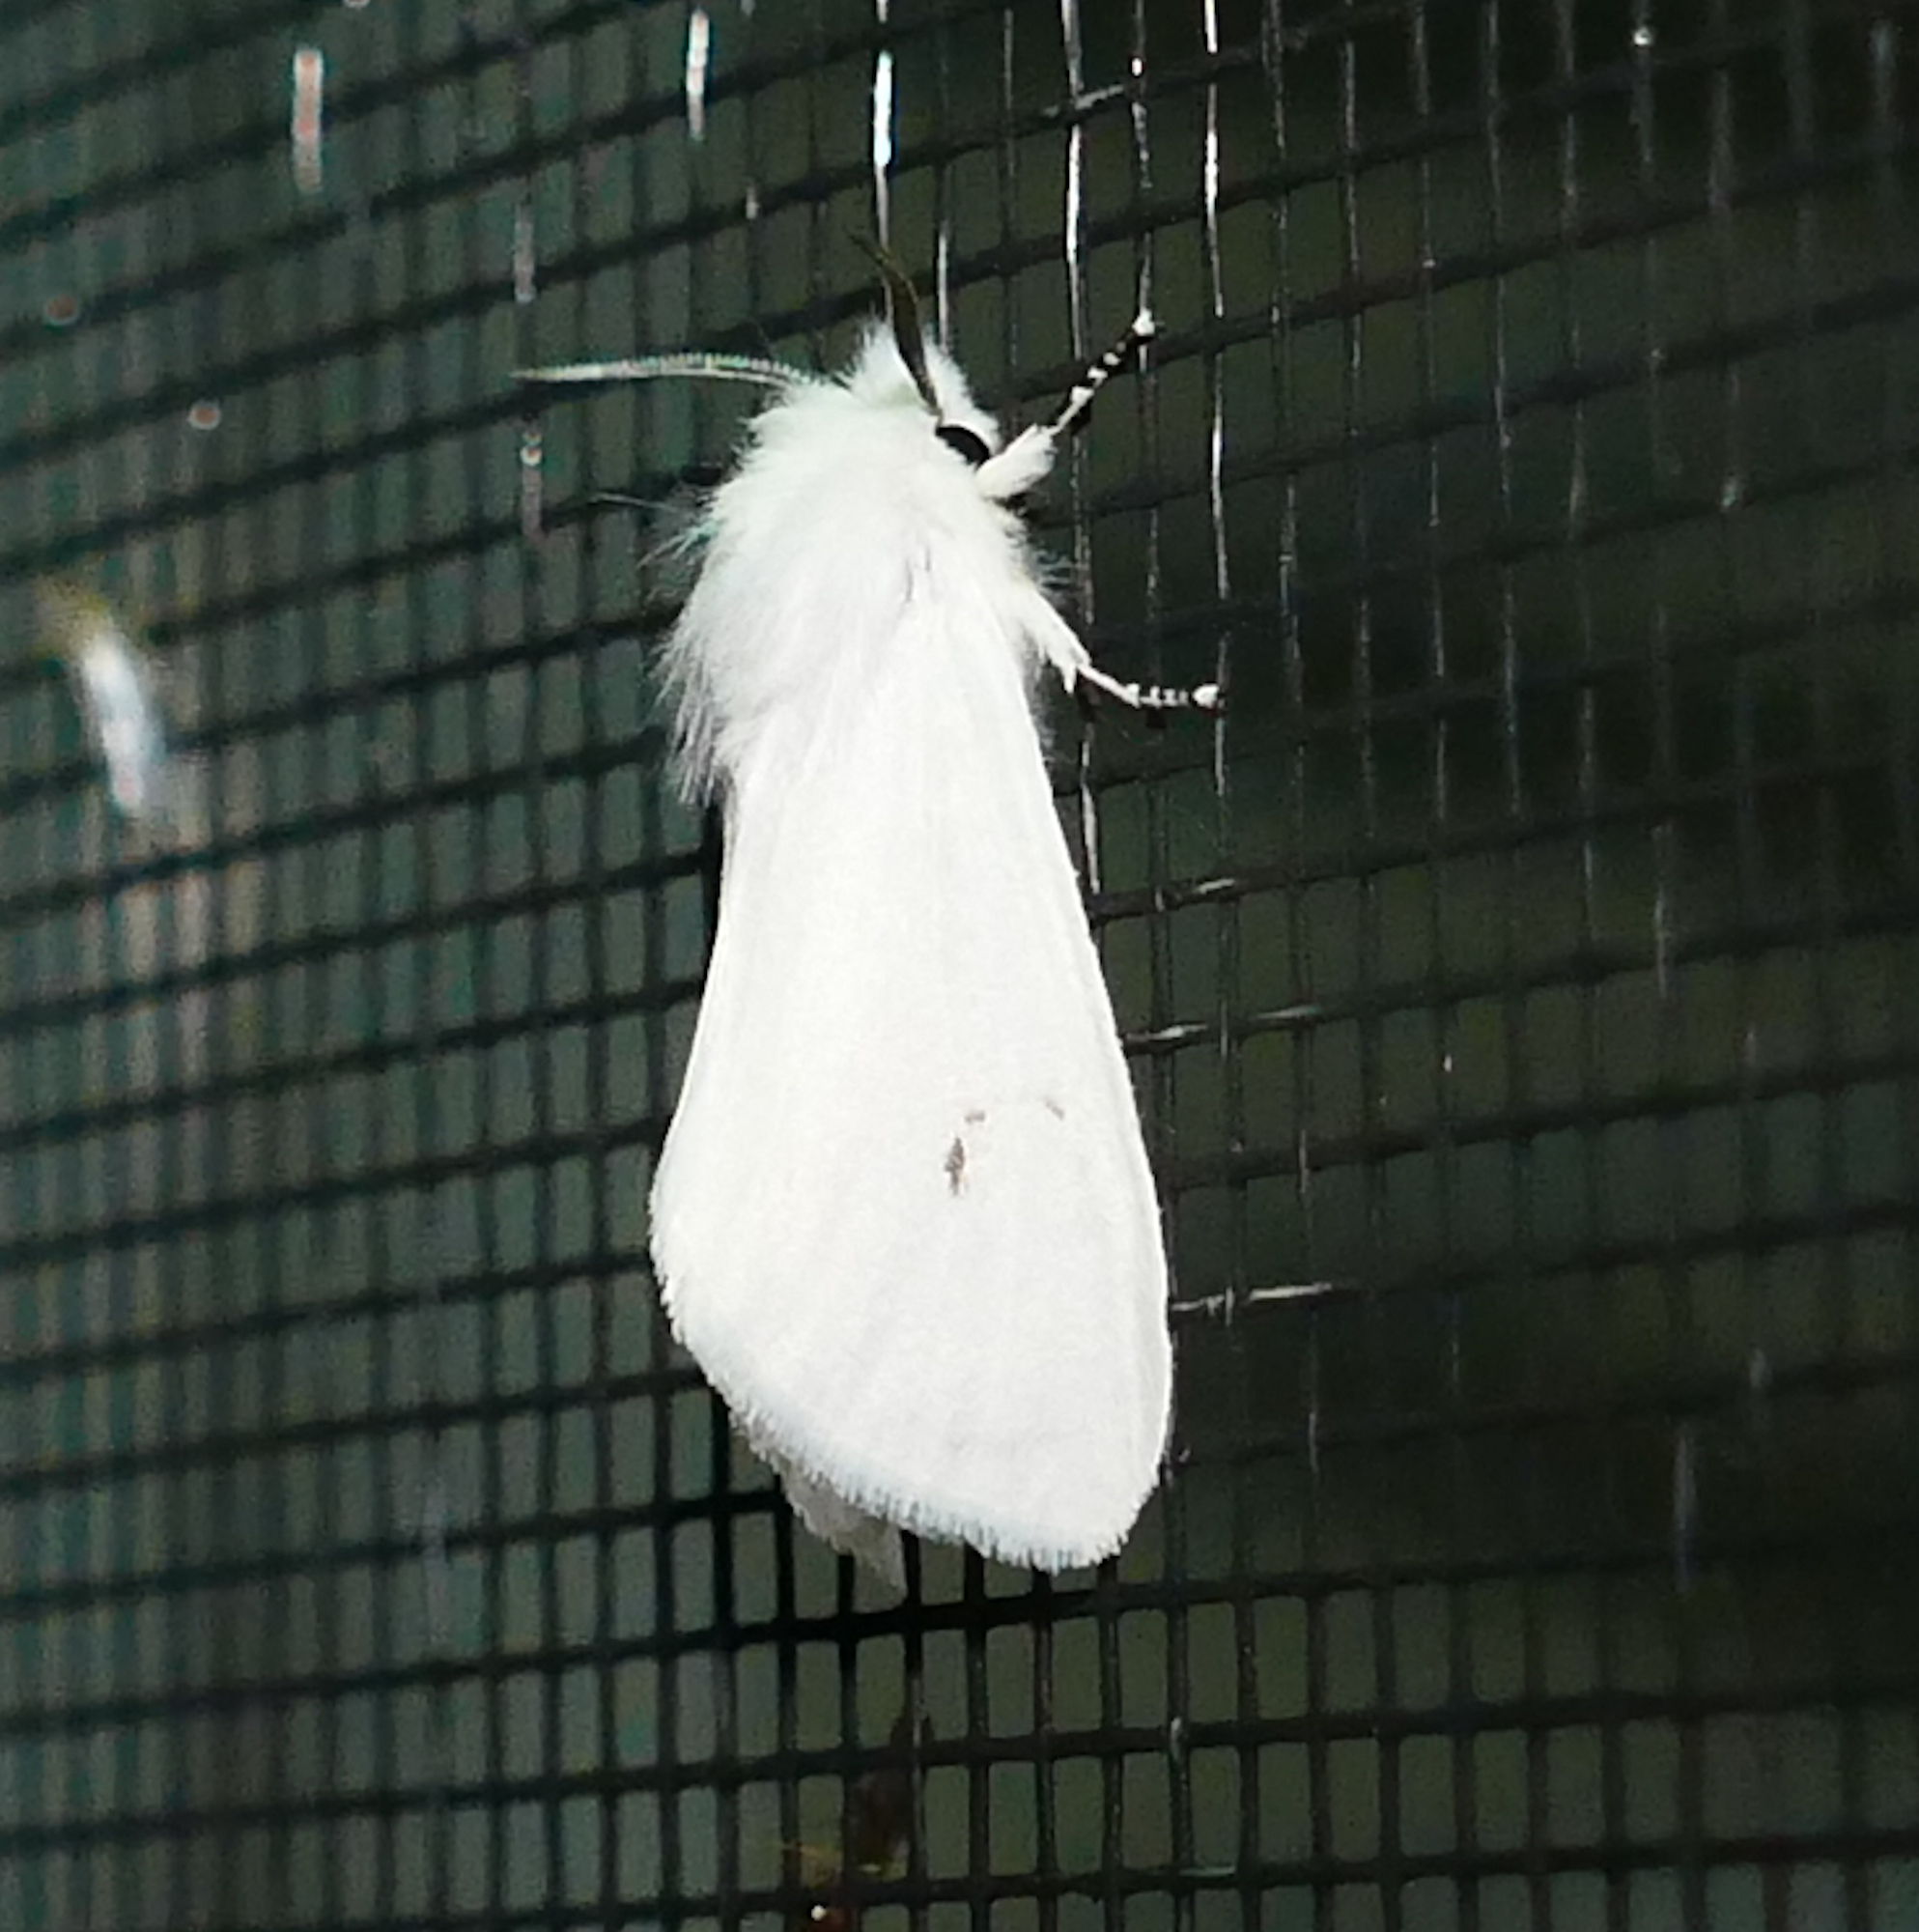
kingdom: Animalia
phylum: Arthropoda
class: Insecta
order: Lepidoptera
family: Erebidae
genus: Spilosoma
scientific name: Spilosoma virginica
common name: Virginia tiger moth
